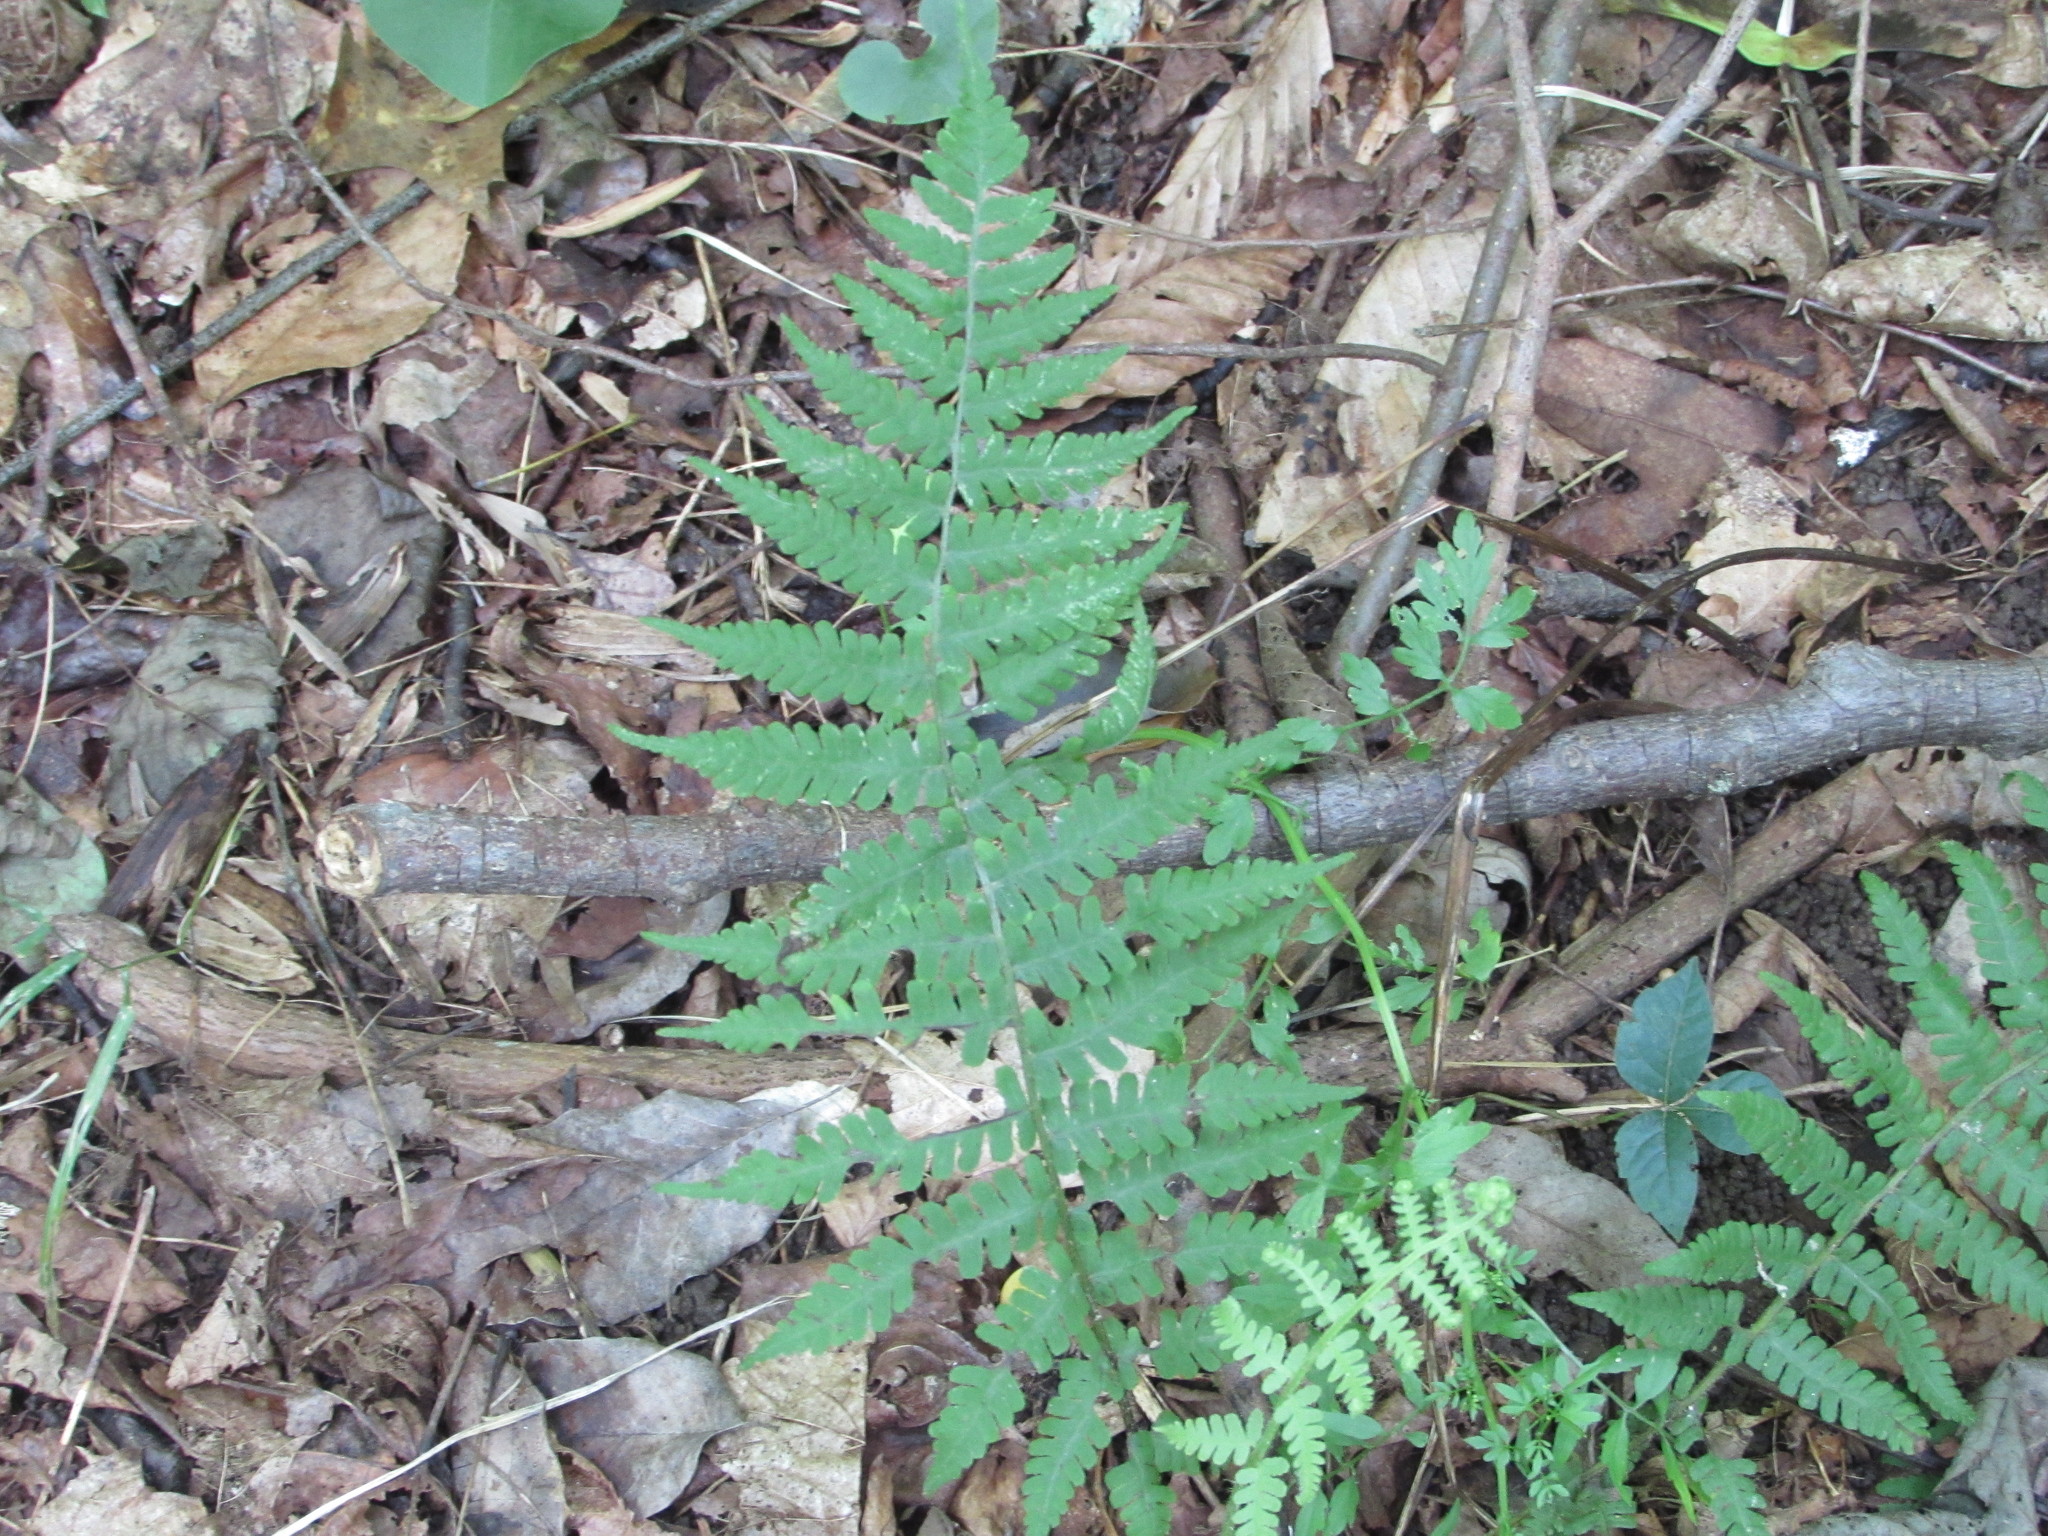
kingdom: Plantae
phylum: Tracheophyta
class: Polypodiopsida
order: Polypodiales
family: Athyriaceae
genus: Deparia
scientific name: Deparia acrostichoides
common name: Silver false spleenwort
